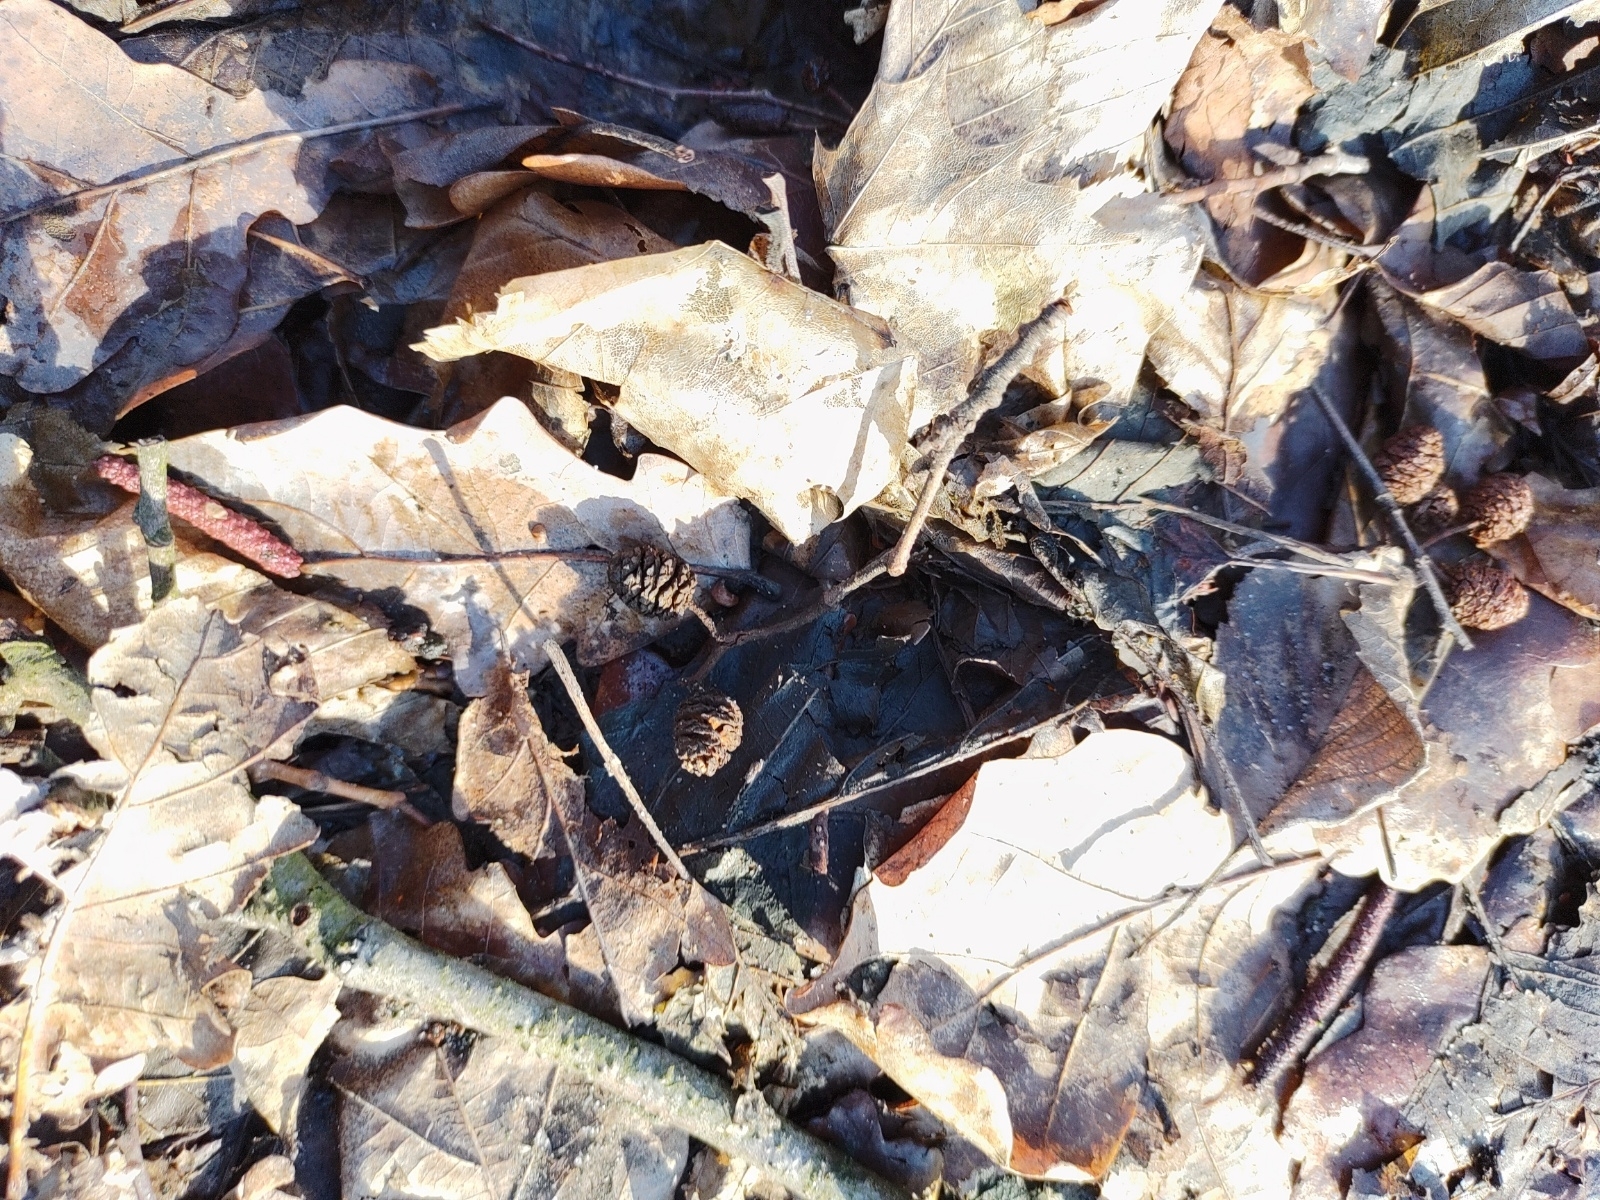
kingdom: Plantae
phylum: Tracheophyta
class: Magnoliopsida
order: Fagales
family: Betulaceae
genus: Alnus
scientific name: Alnus glutinosa
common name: Black alder
